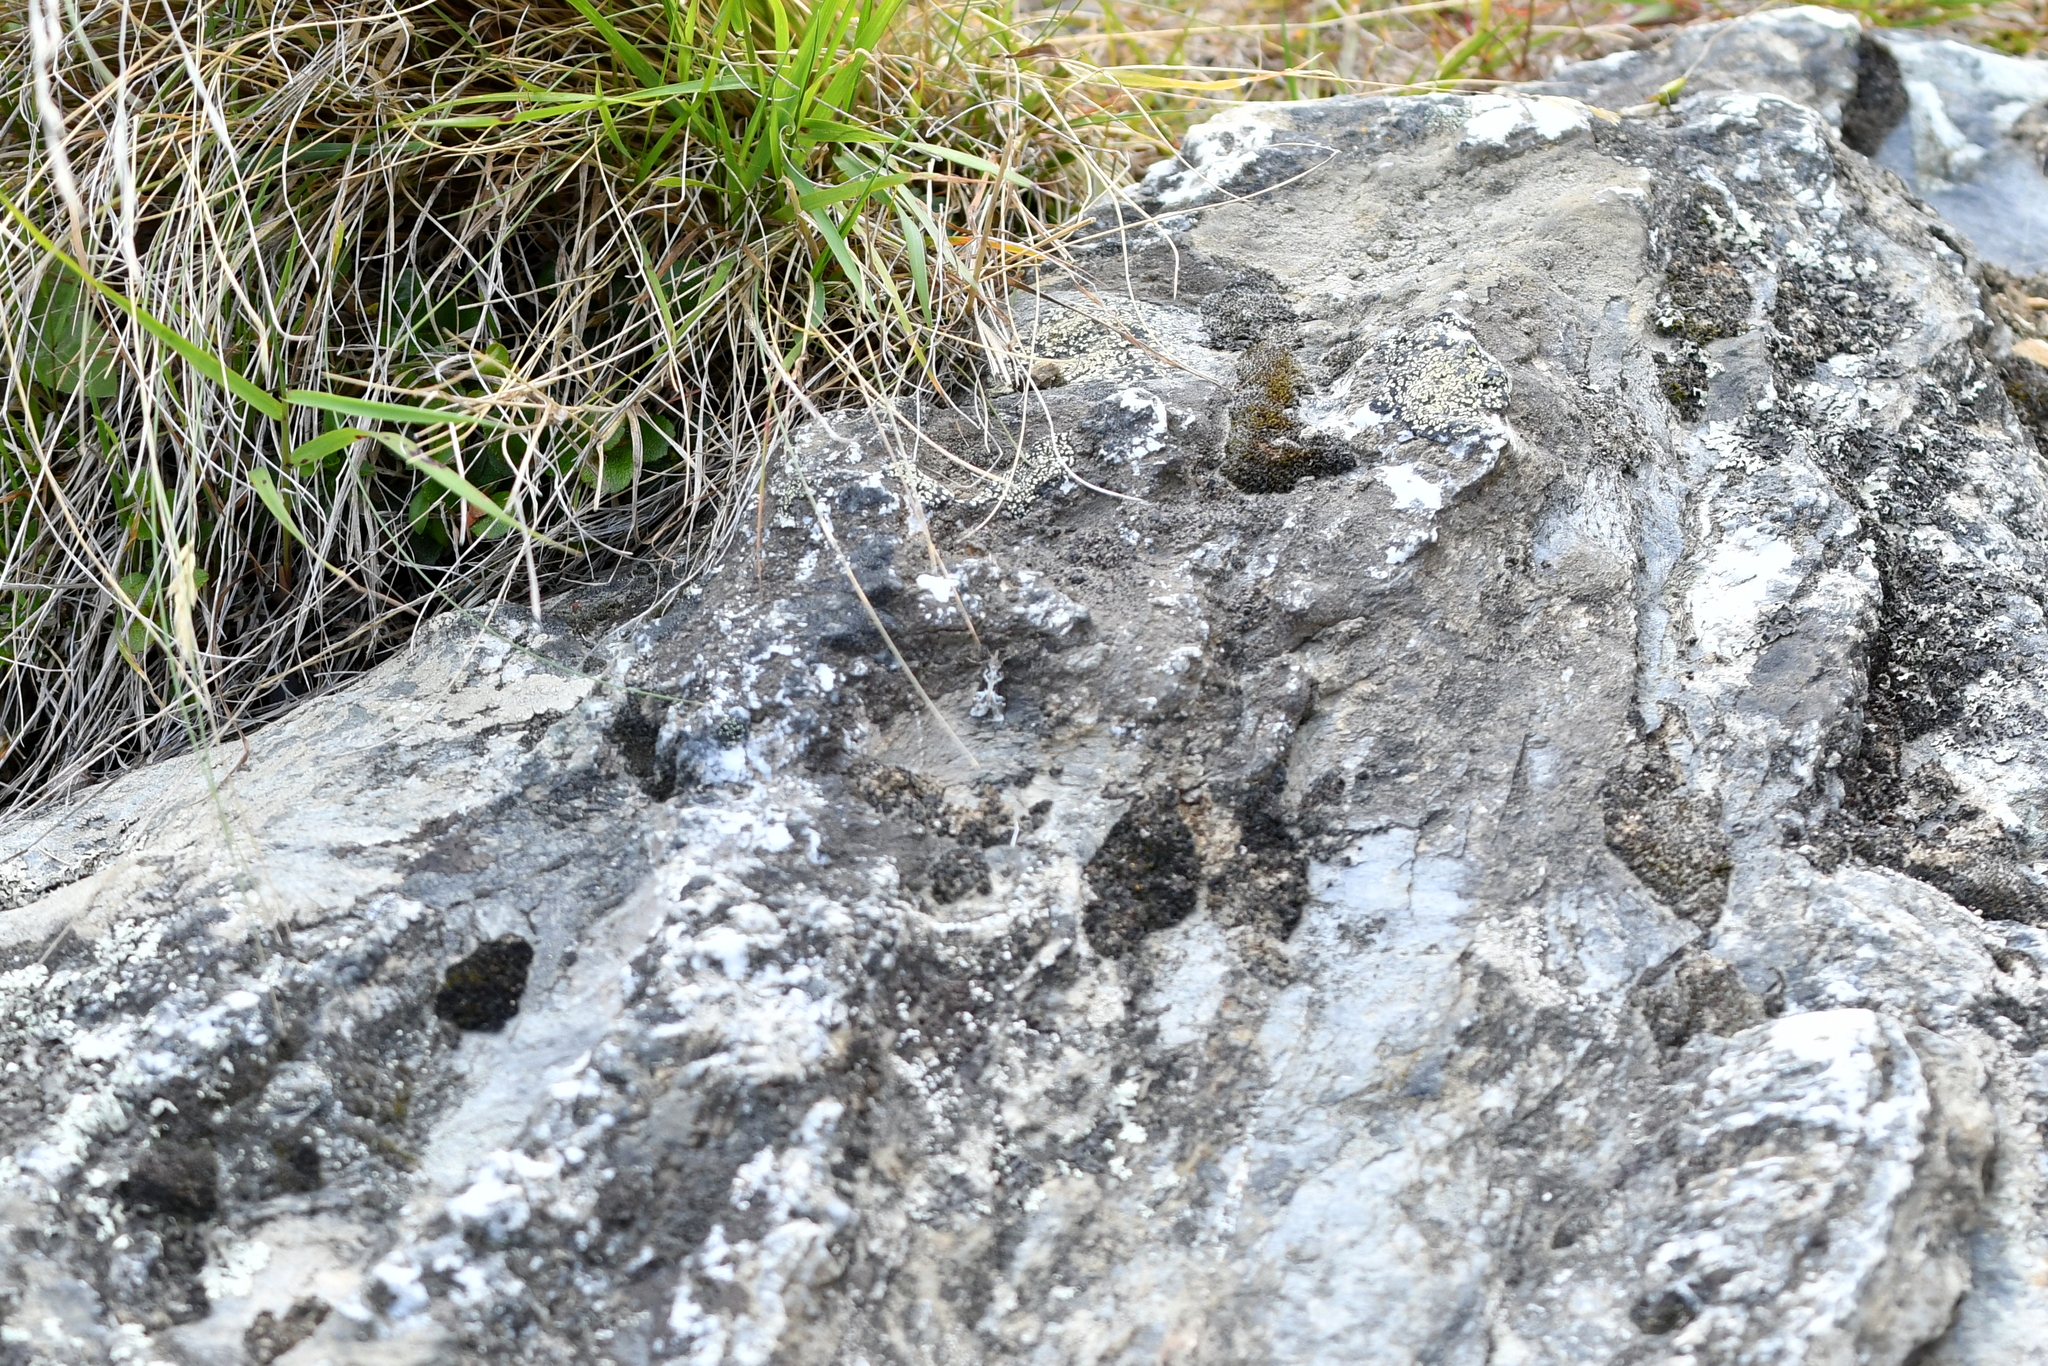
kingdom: Animalia
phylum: Arthropoda
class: Insecta
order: Lepidoptera
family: Crambidae
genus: Eudonia
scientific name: Eudonia melanaegis
